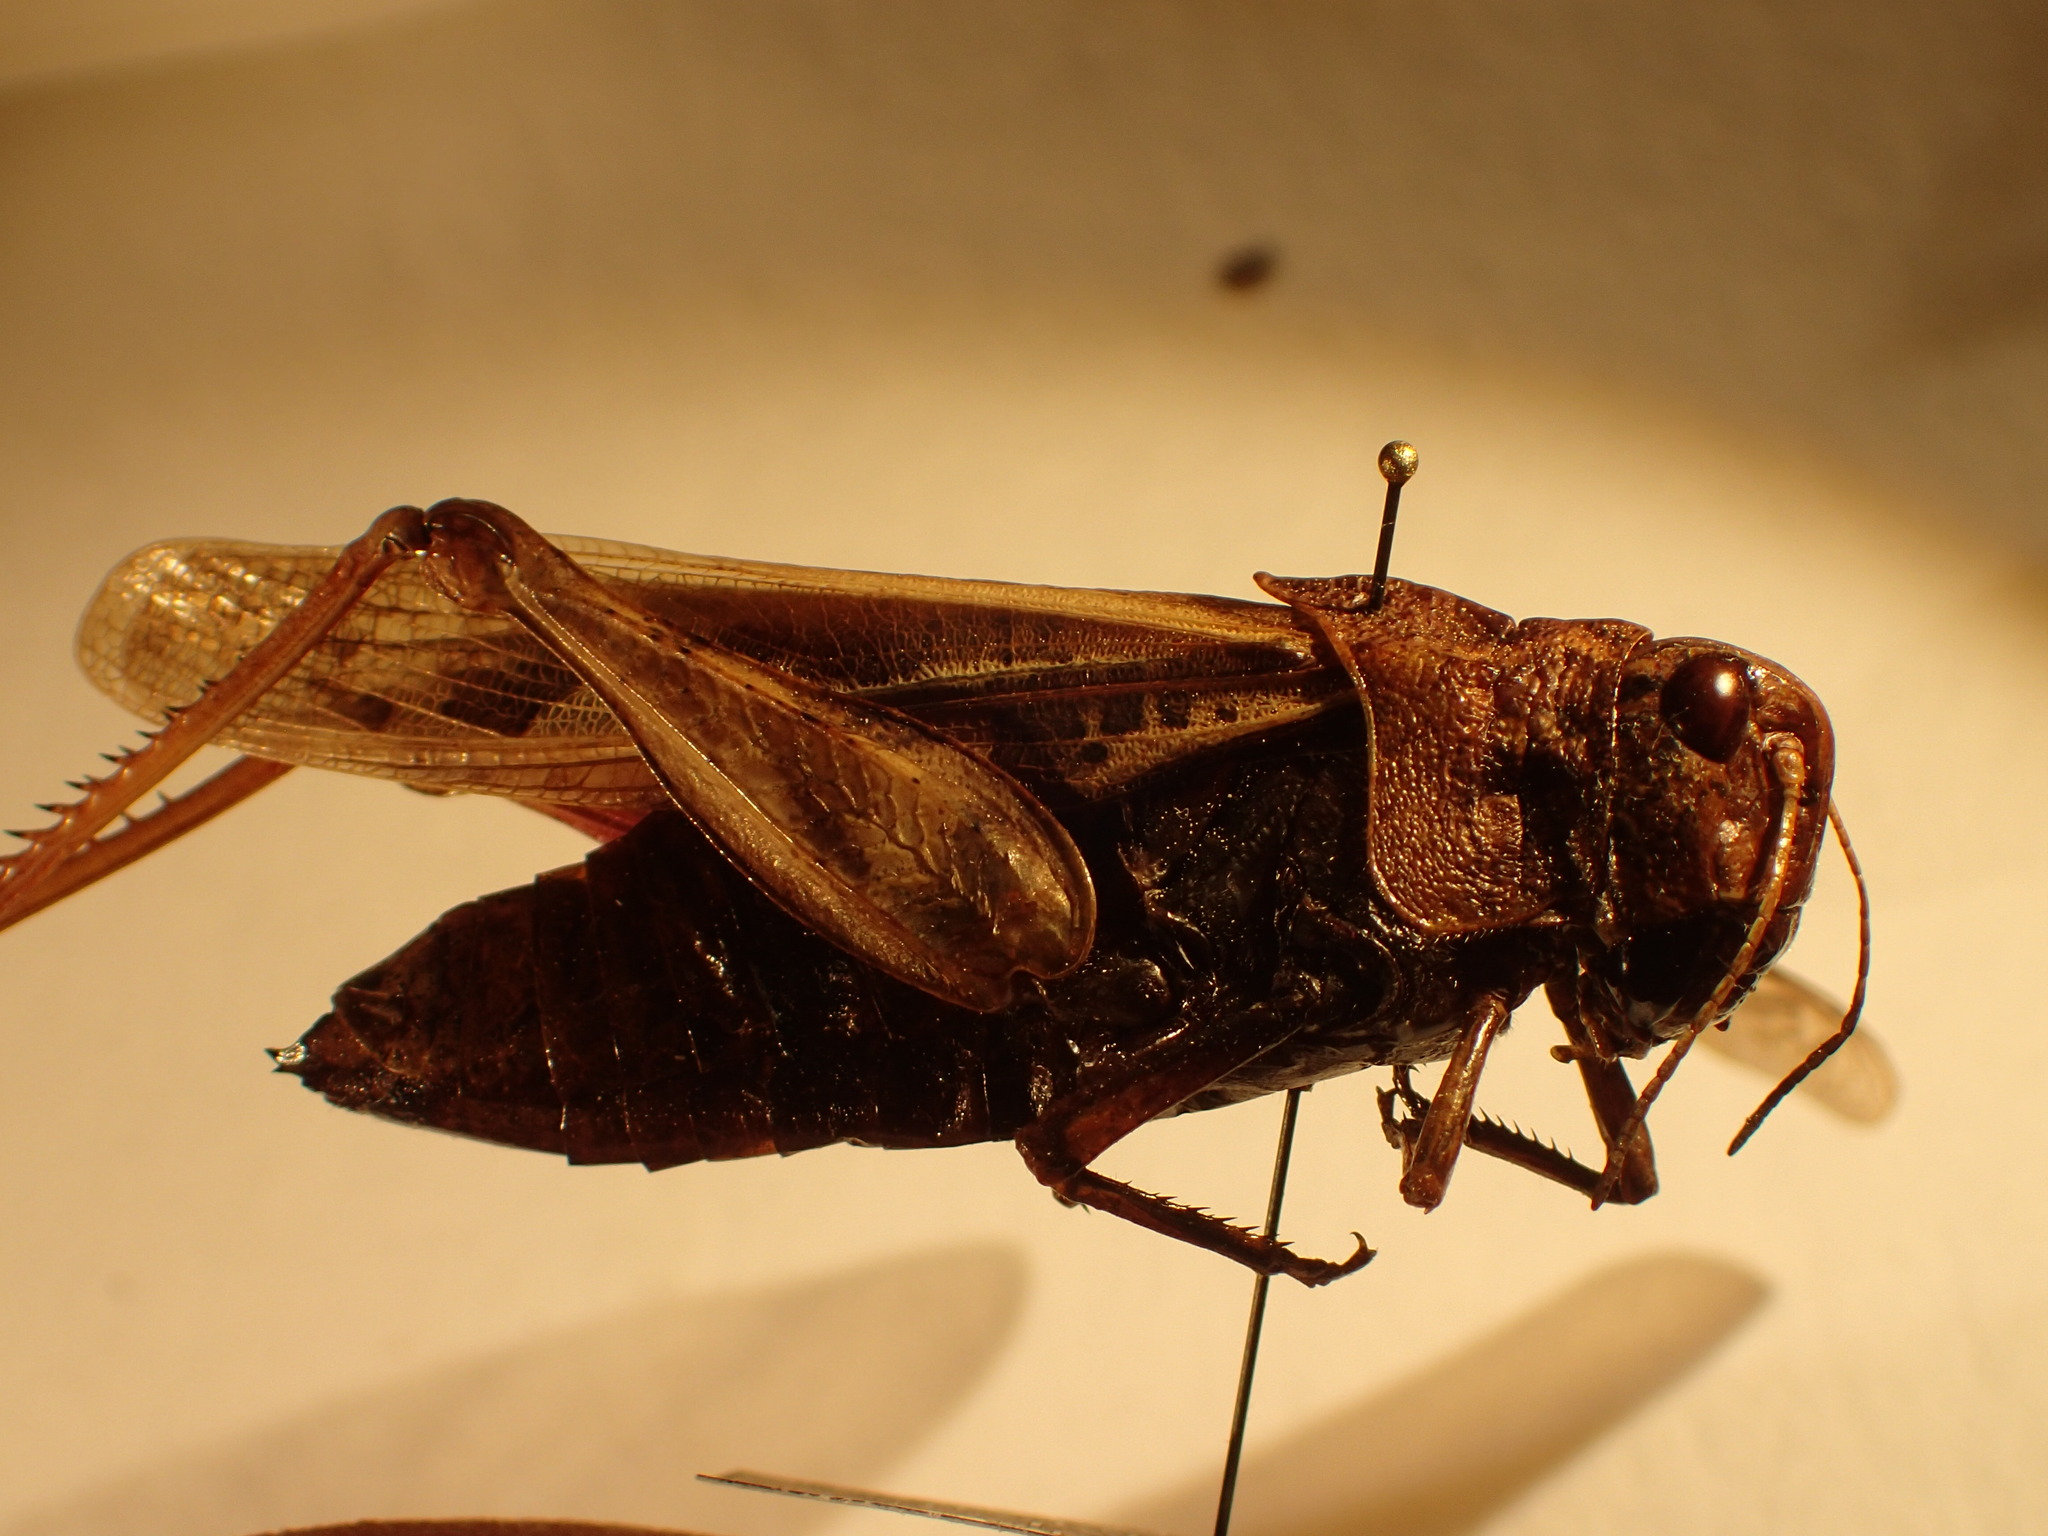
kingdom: Animalia
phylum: Arthropoda
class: Insecta
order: Orthoptera
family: Acrididae
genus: Pardalophora
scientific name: Pardalophora apiculata
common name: Coral-winged locust
